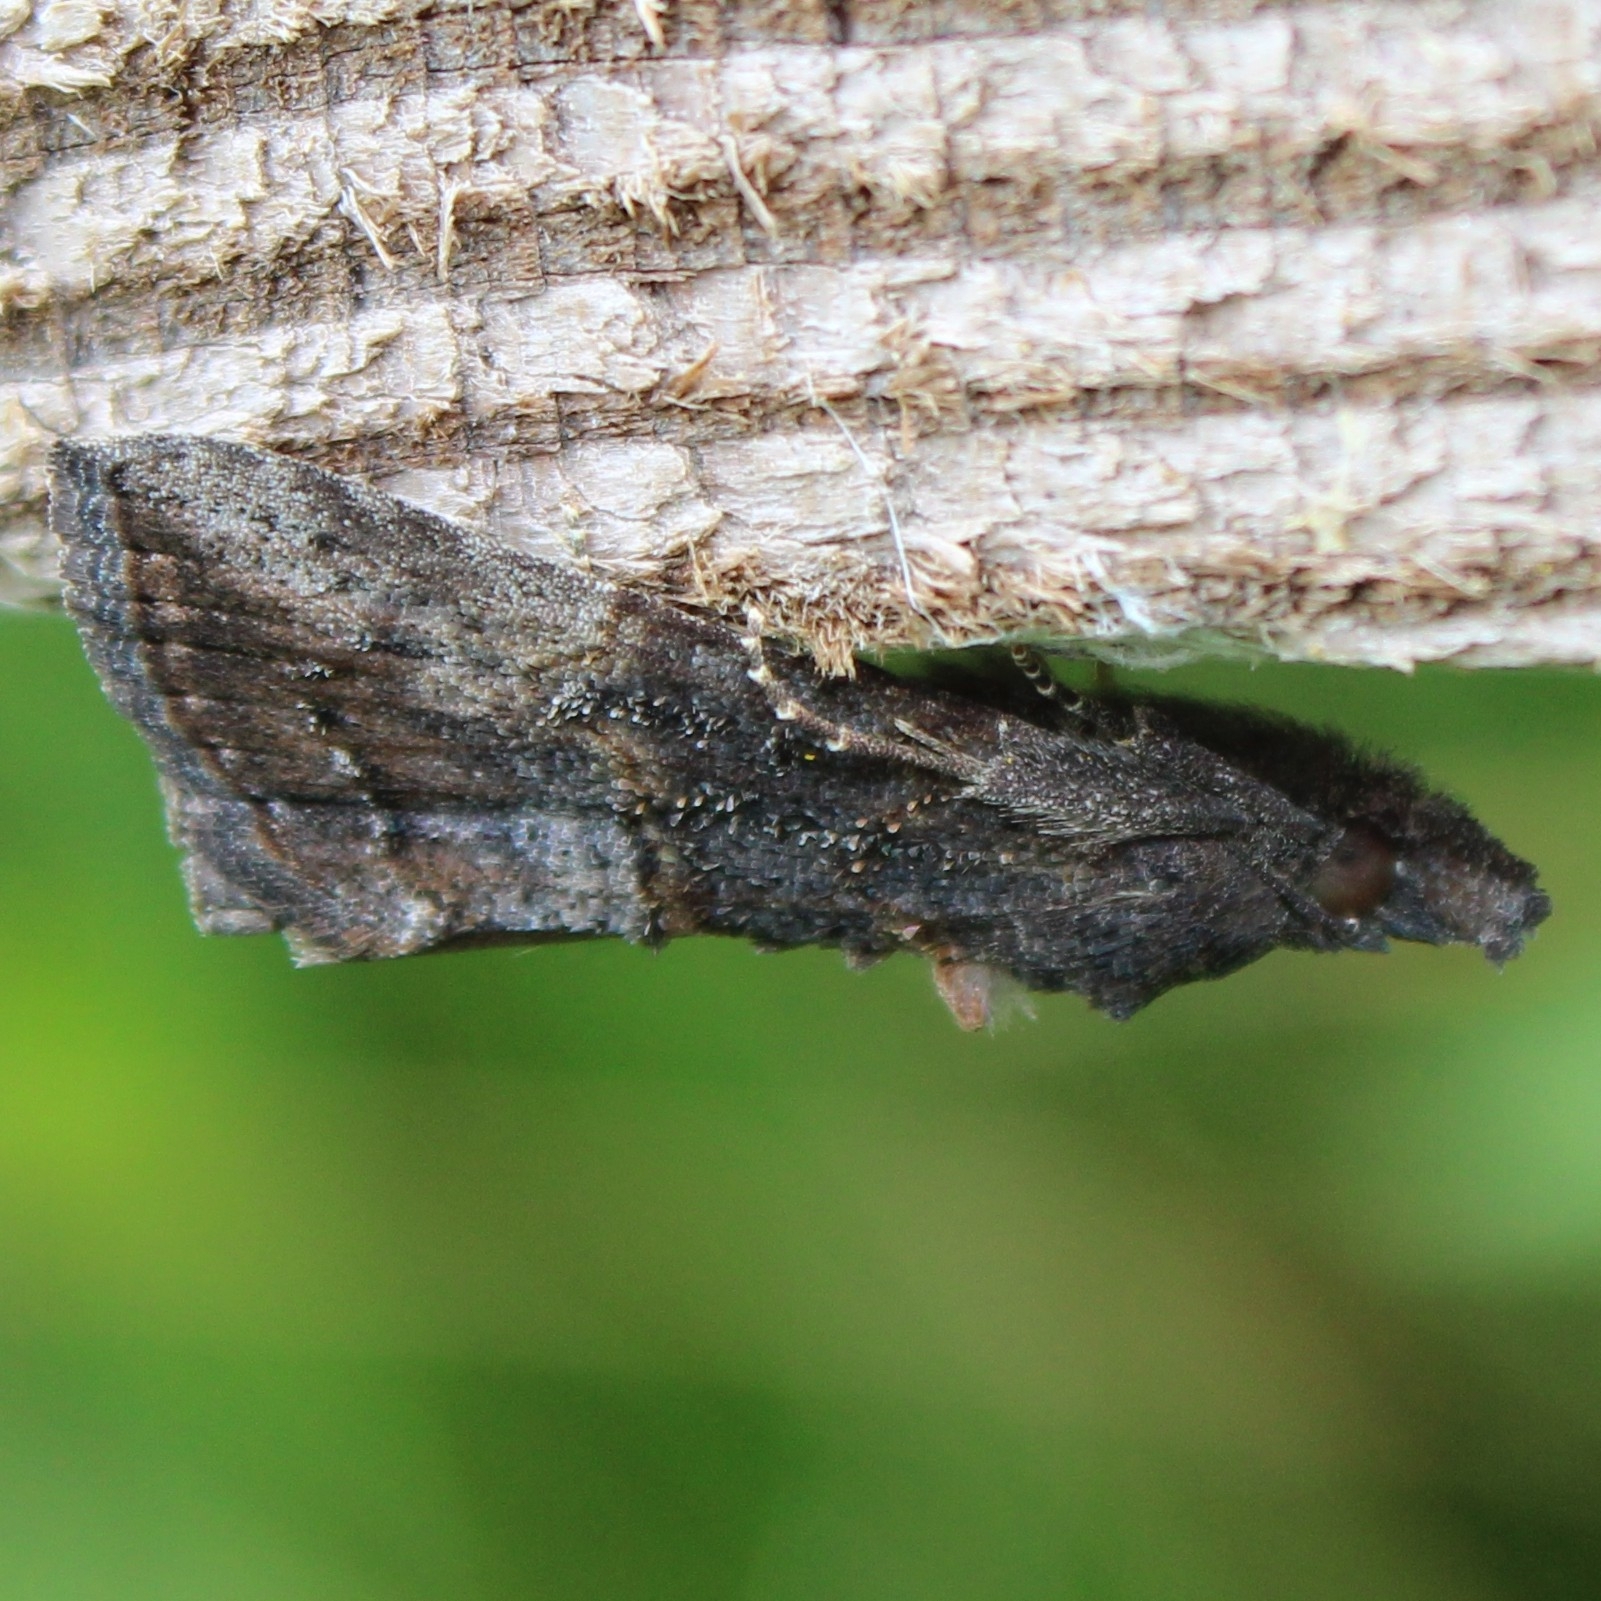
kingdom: Animalia
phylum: Arthropoda
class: Insecta
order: Lepidoptera
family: Erebidae
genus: Hypena
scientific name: Hypena scabra
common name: Green cloverworm
